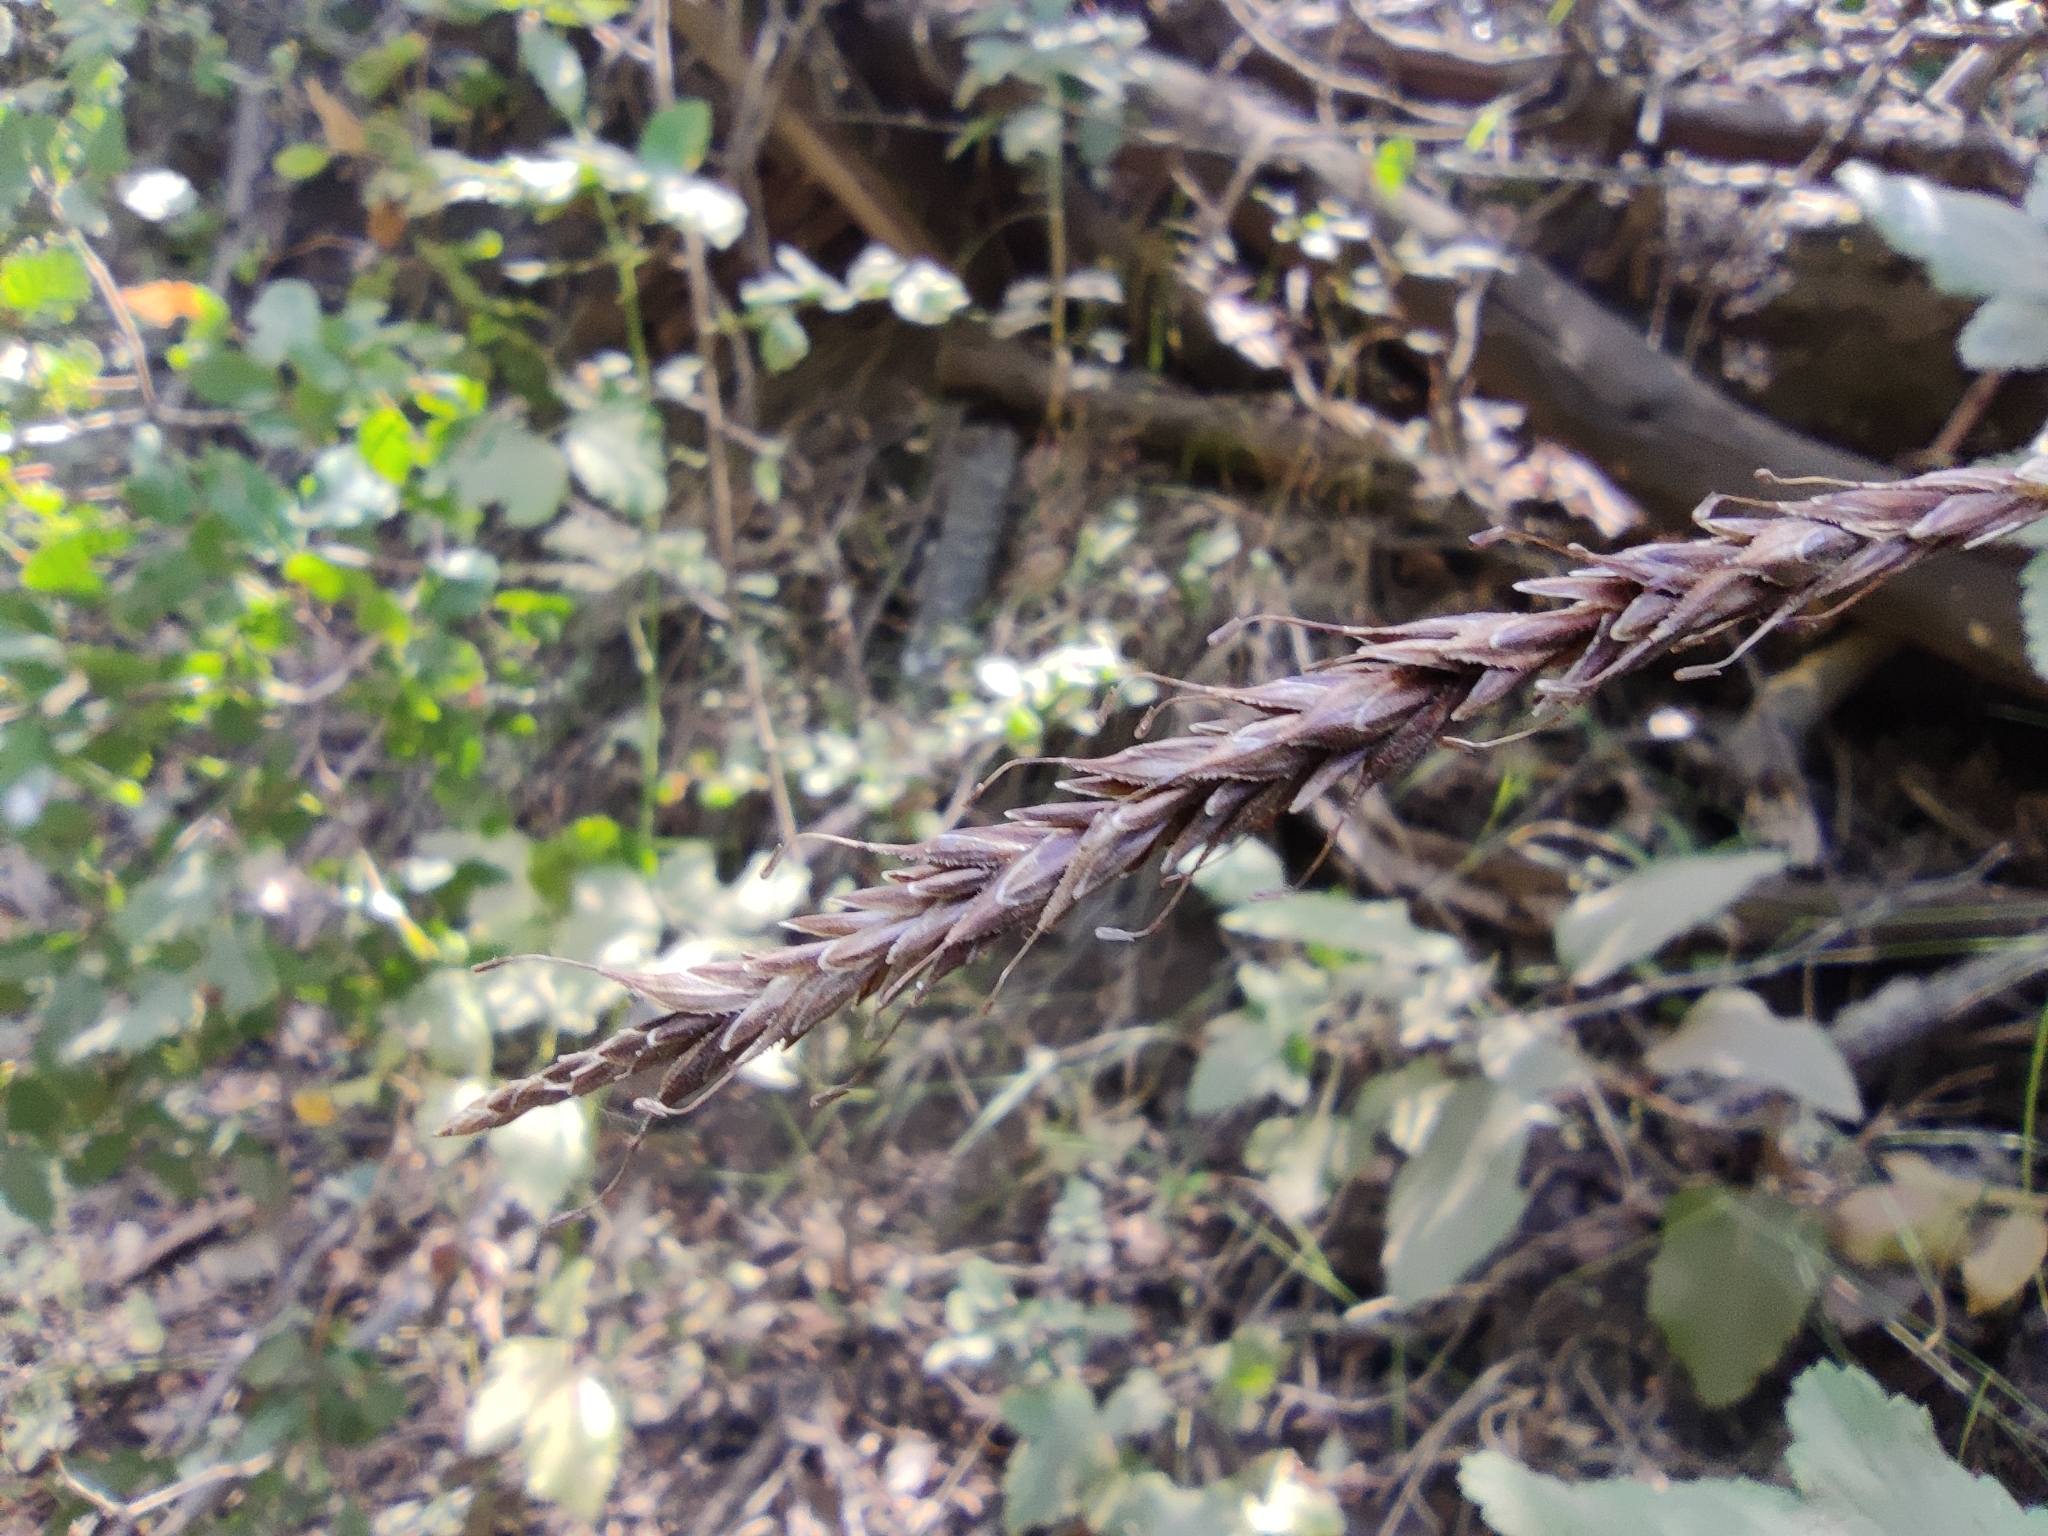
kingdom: Plantae
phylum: Tracheophyta
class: Liliopsida
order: Poales
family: Cyperaceae
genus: Carex
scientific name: Carex salticola
